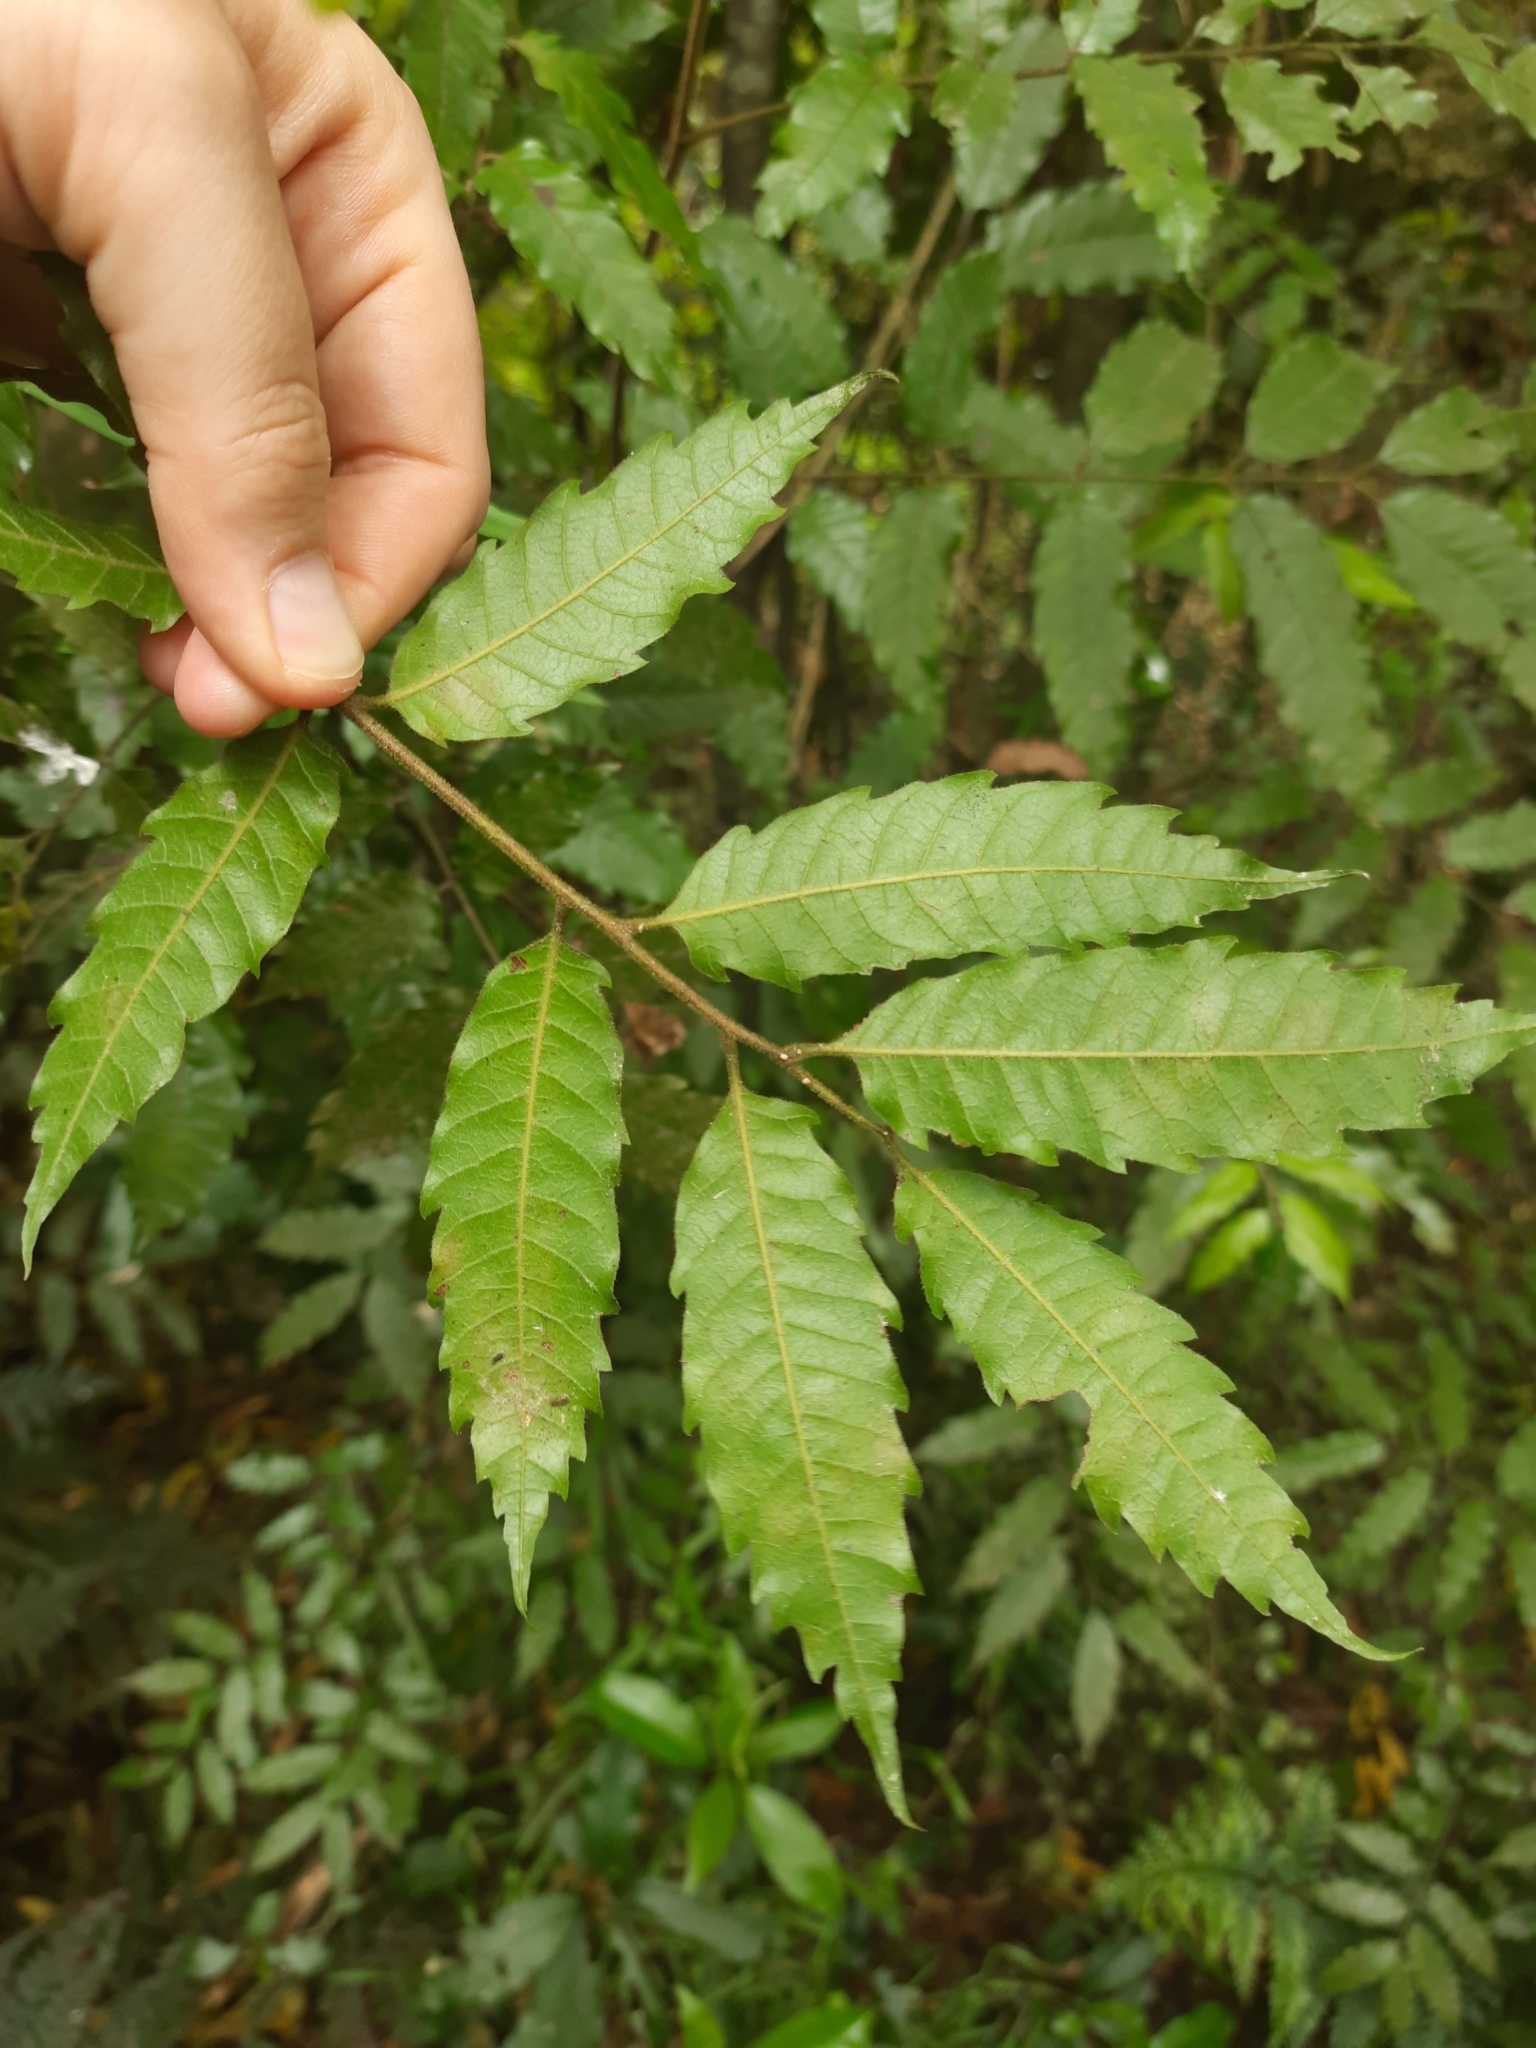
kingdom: Plantae
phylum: Tracheophyta
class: Magnoliopsida
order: Sapindales
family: Sapindaceae
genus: Alectryon
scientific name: Alectryon excelsus
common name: Three kings titoki
